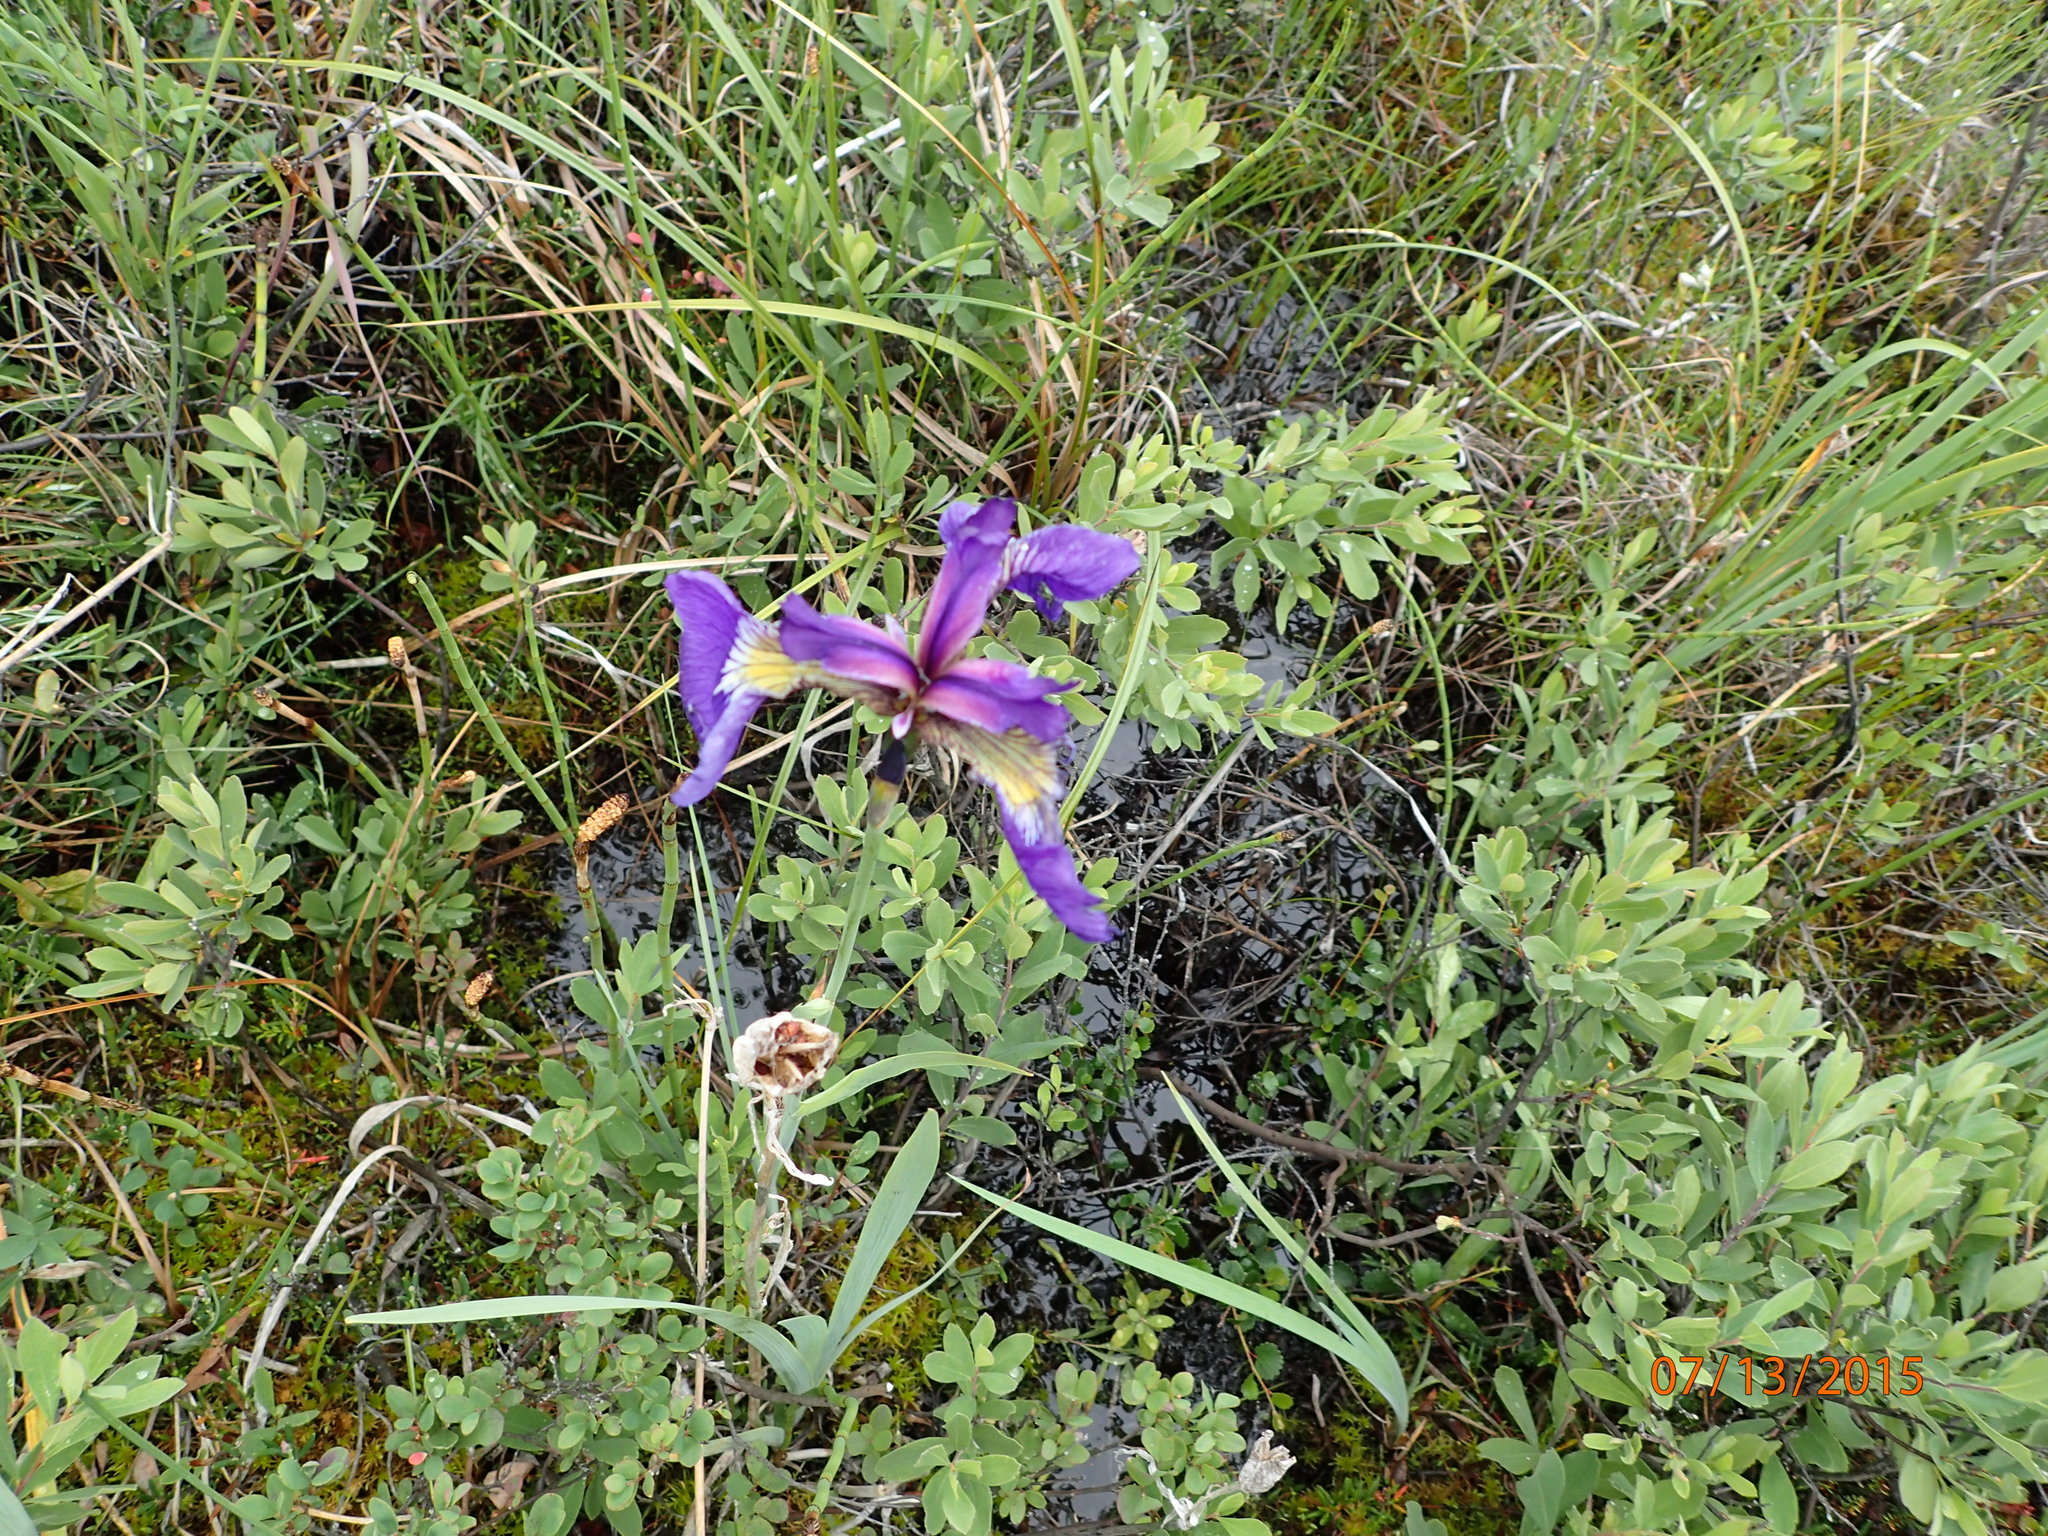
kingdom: Plantae
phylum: Tracheophyta
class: Liliopsida
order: Asparagales
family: Iridaceae
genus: Iris
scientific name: Iris setosa
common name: Arctic blue flag
